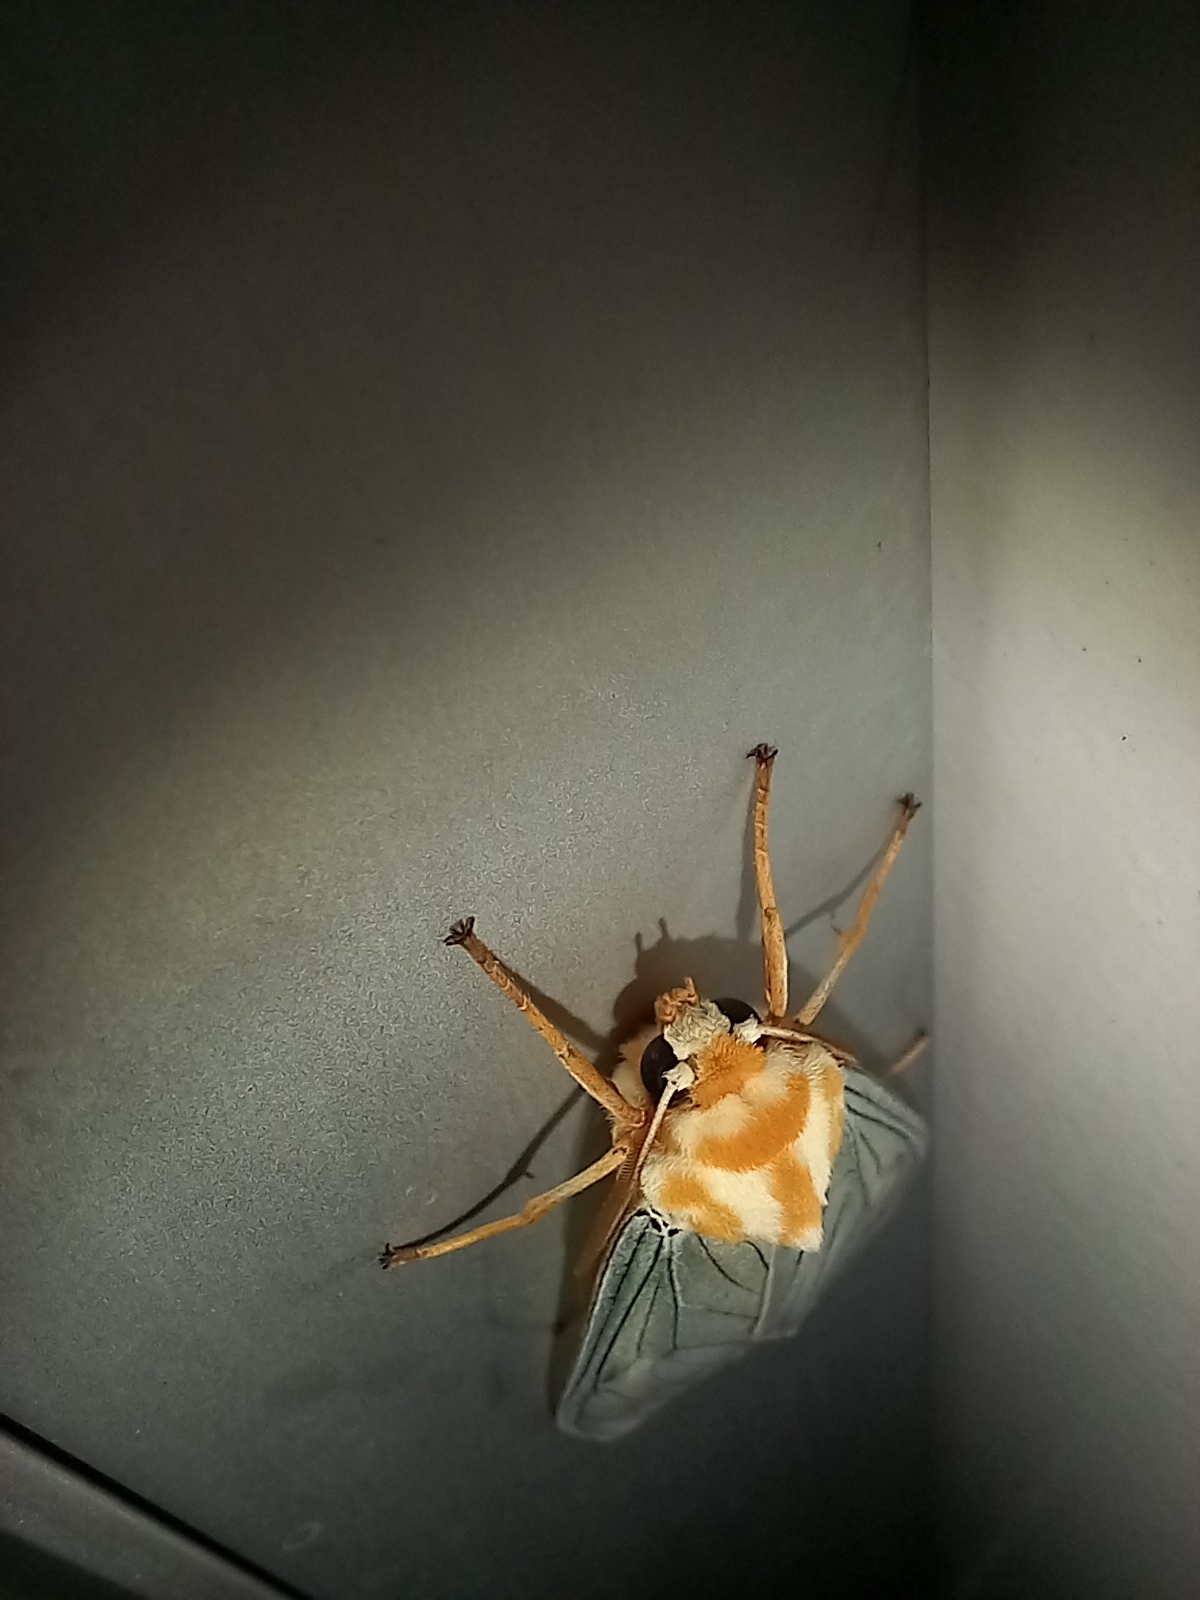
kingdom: Animalia
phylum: Arthropoda
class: Insecta
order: Lepidoptera
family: Erebidae
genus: Amastus
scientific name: Amastus thalassina
